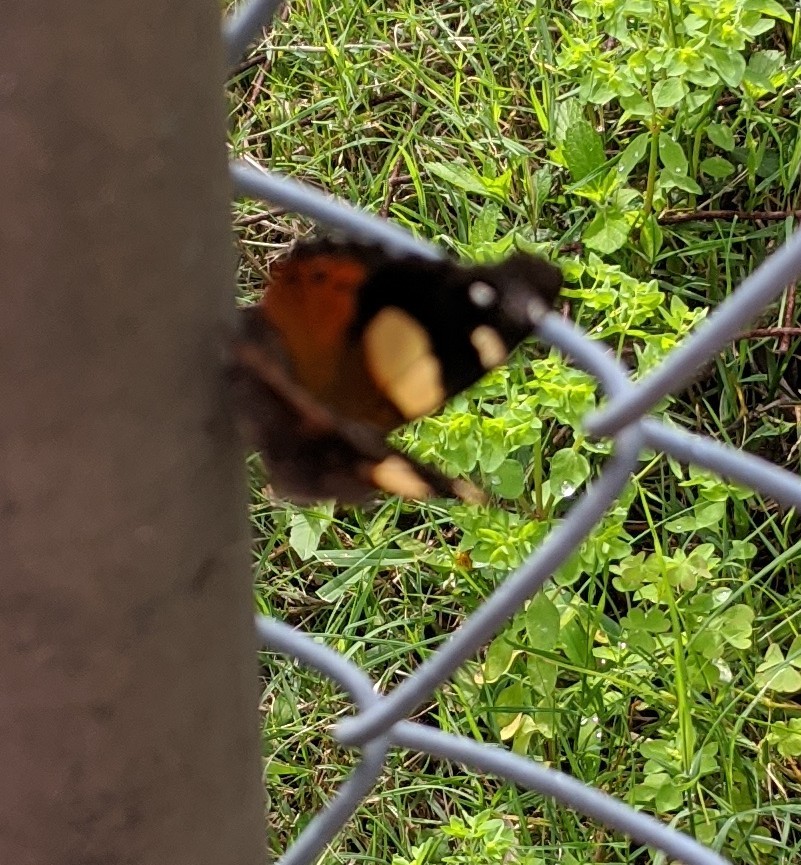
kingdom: Animalia
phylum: Arthropoda
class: Insecta
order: Lepidoptera
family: Nymphalidae
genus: Vanessa
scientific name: Vanessa itea
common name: Yellow admiral
